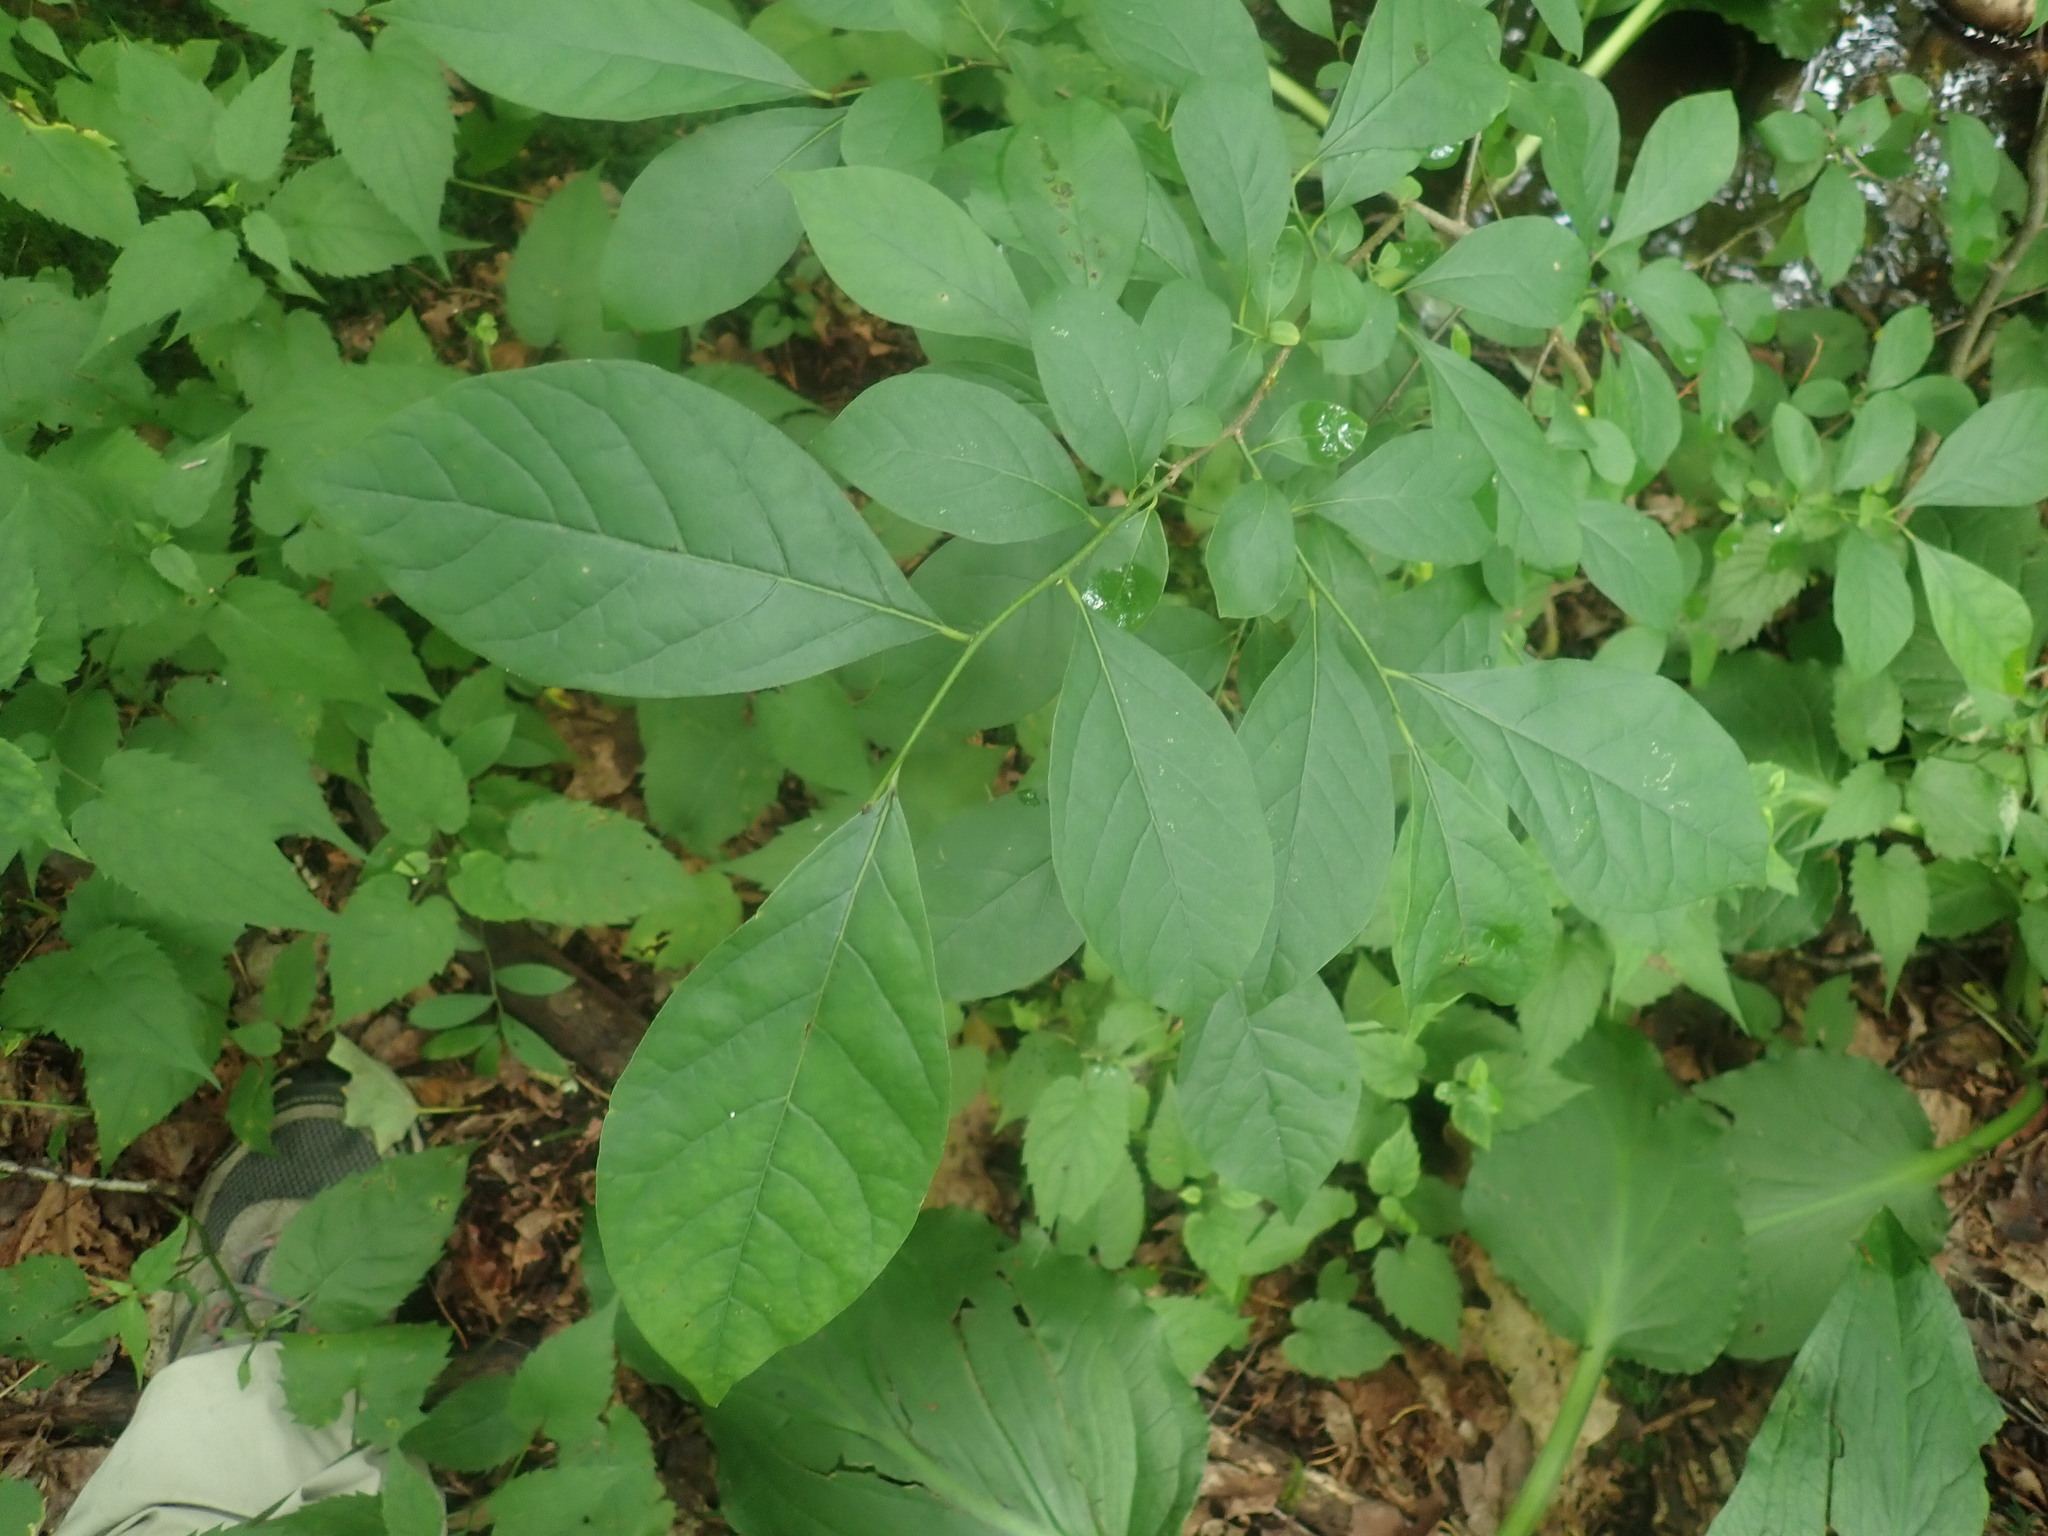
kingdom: Plantae
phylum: Tracheophyta
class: Magnoliopsida
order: Laurales
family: Lauraceae
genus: Lindera
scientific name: Lindera benzoin
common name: Spicebush
